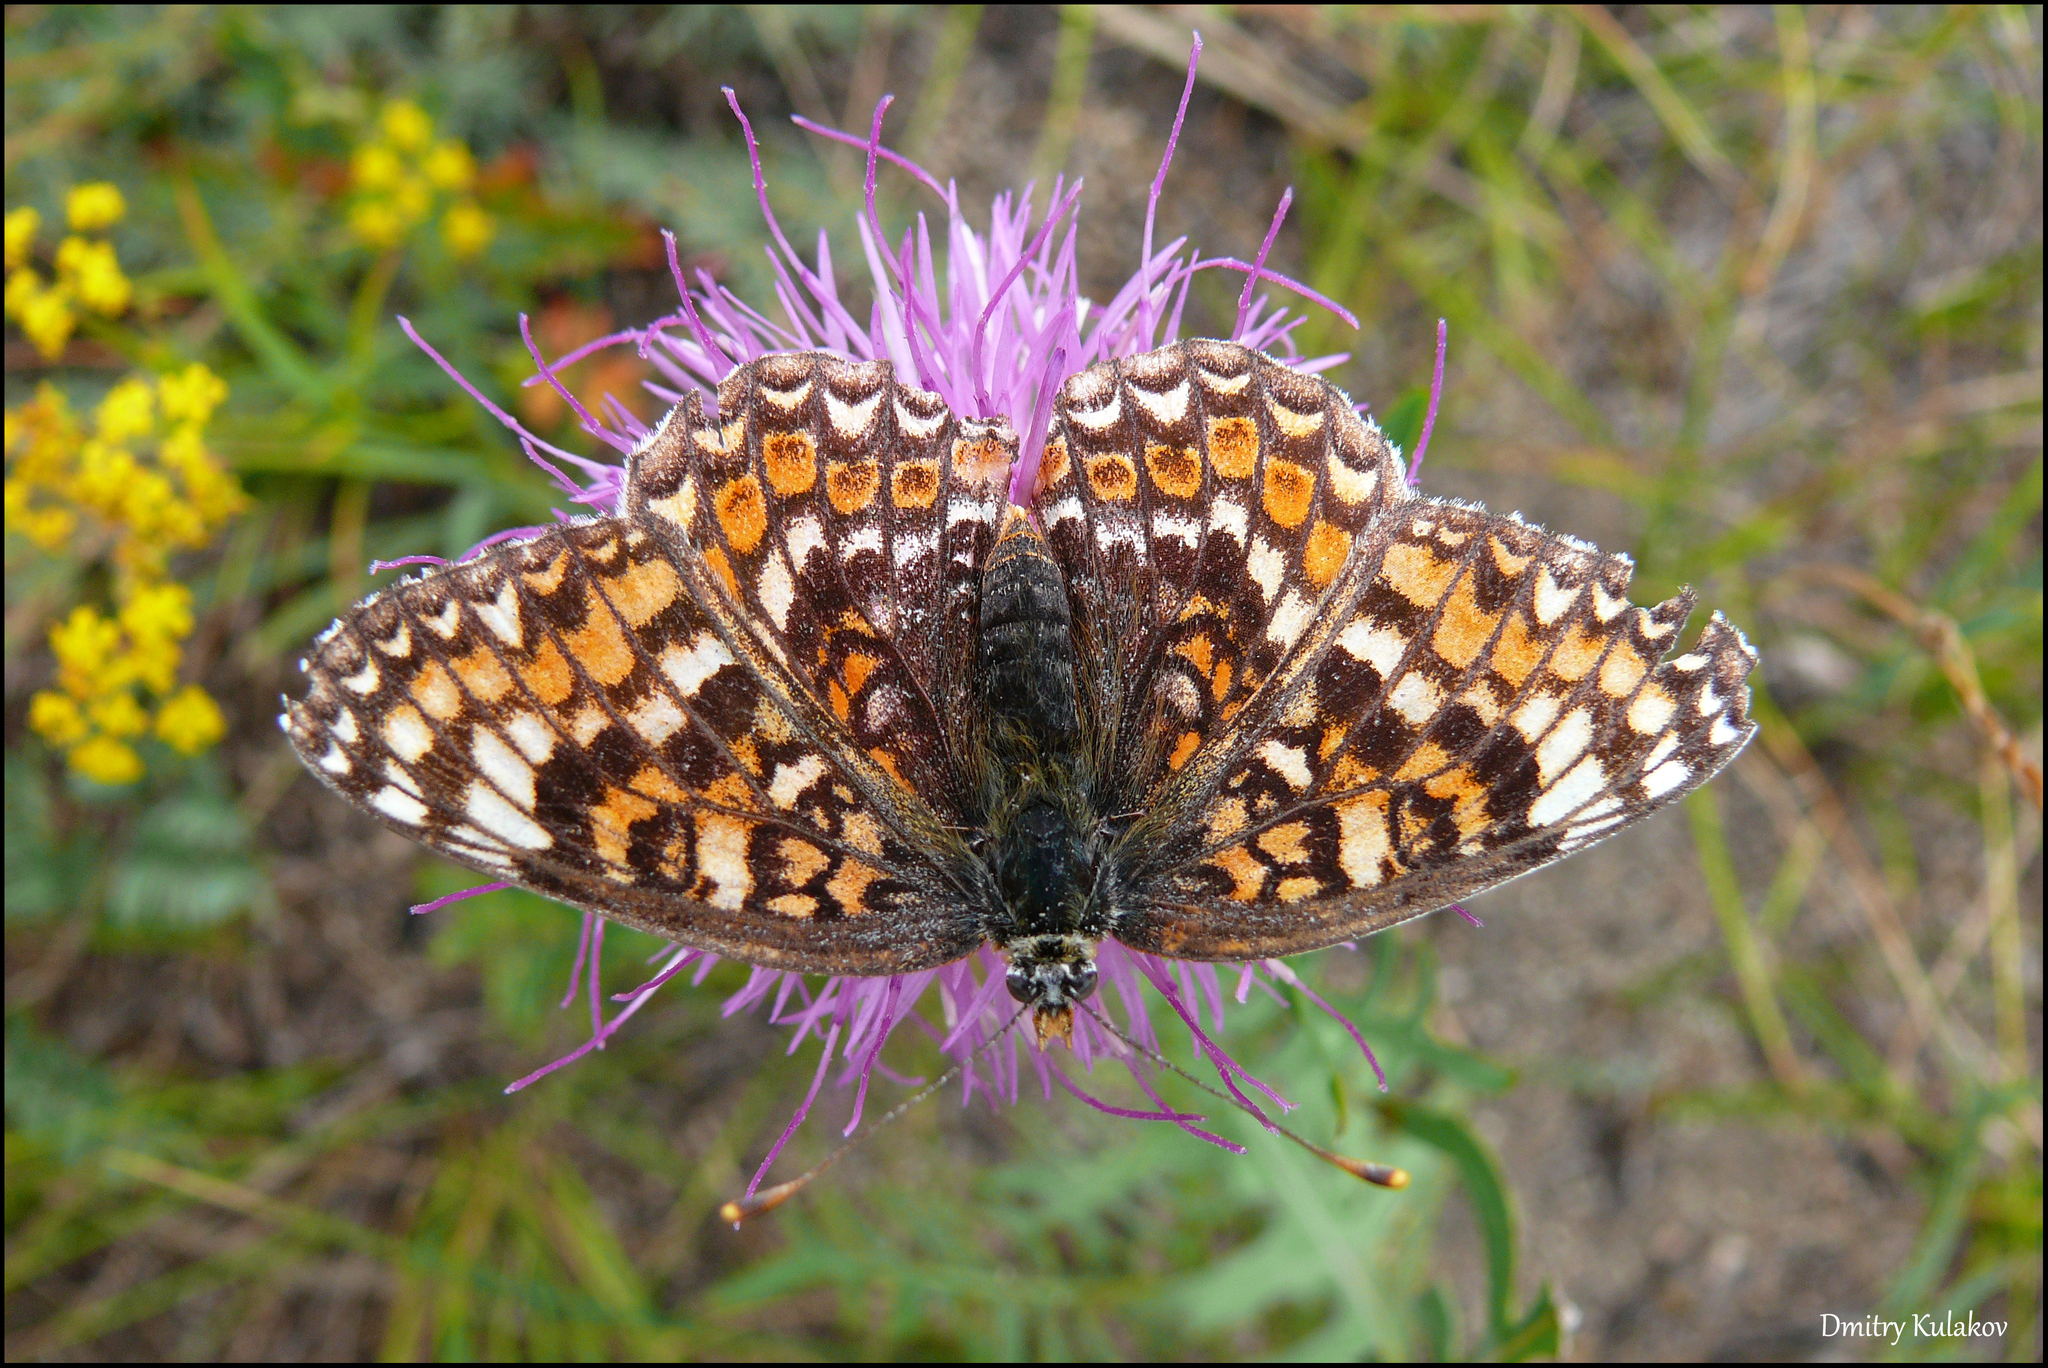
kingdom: Animalia
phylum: Arthropoda
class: Insecta
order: Lepidoptera
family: Nymphalidae
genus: Melitaea
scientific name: Melitaea phoebe
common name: Knapweed fritillary
